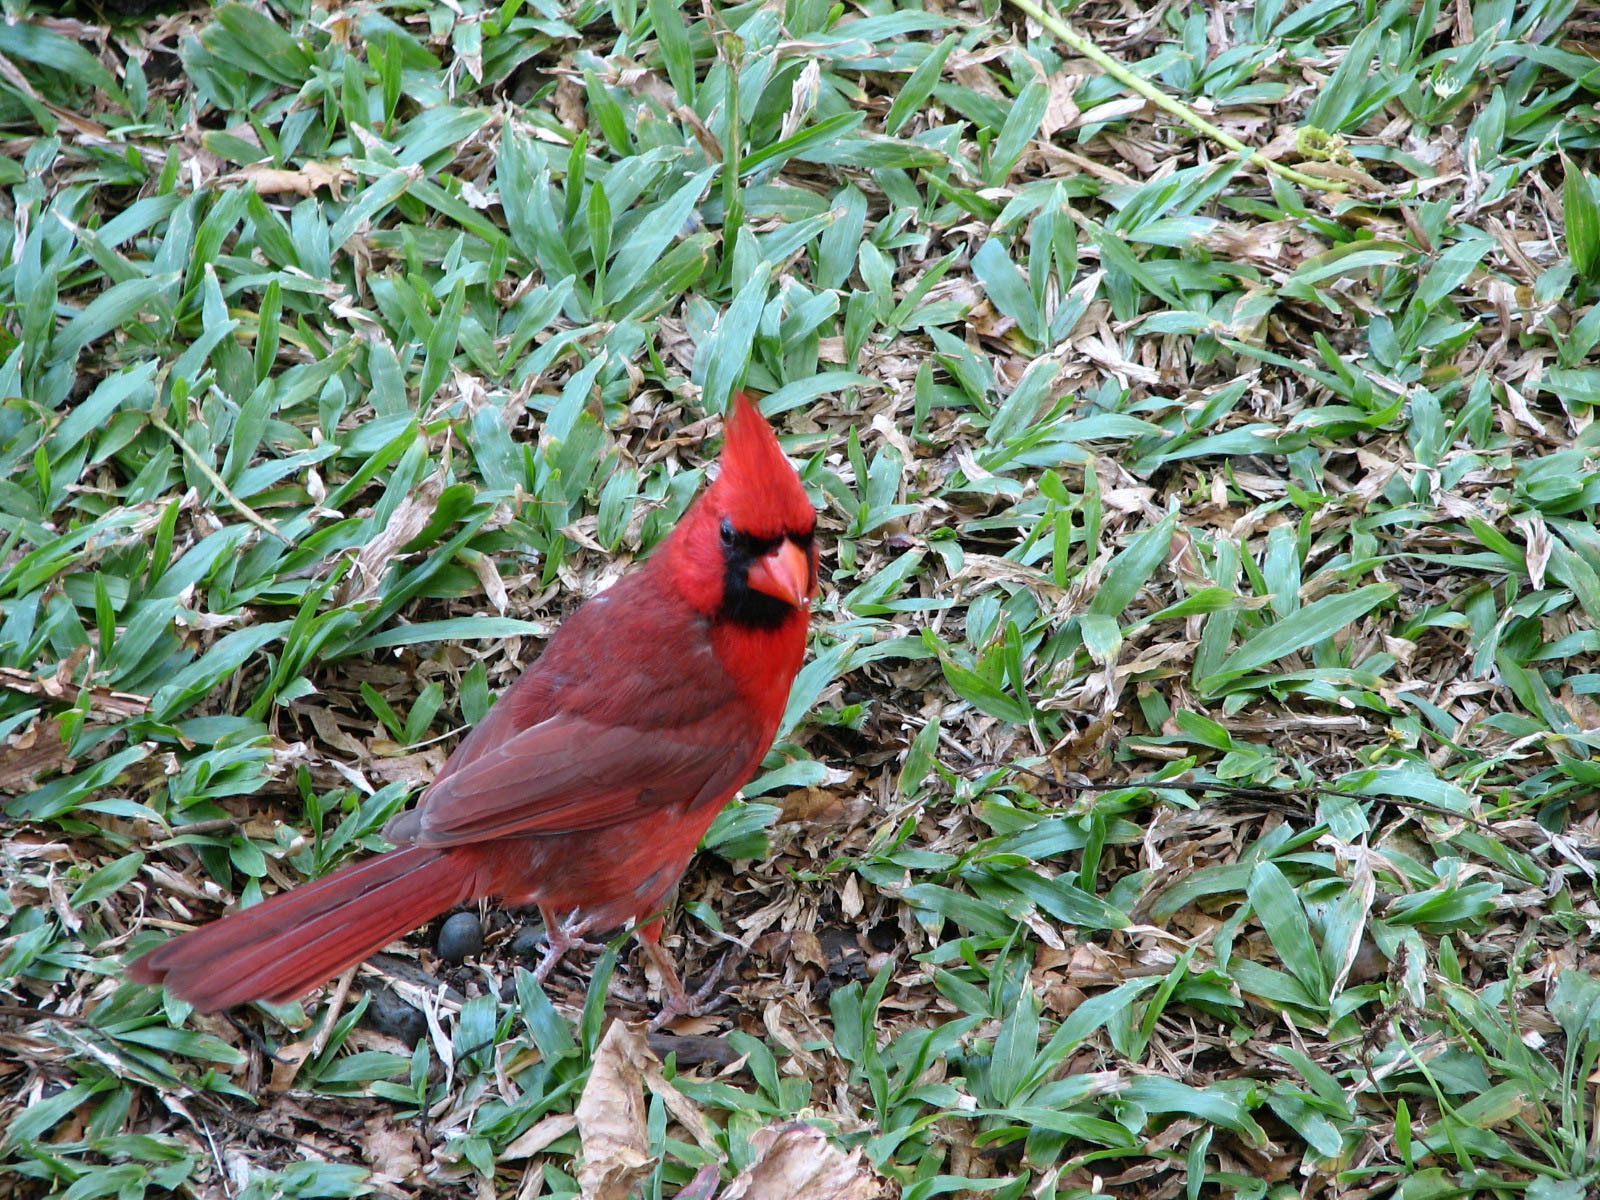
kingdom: Animalia
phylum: Chordata
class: Aves
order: Passeriformes
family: Cardinalidae
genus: Cardinalis
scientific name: Cardinalis cardinalis
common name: Northern cardinal
